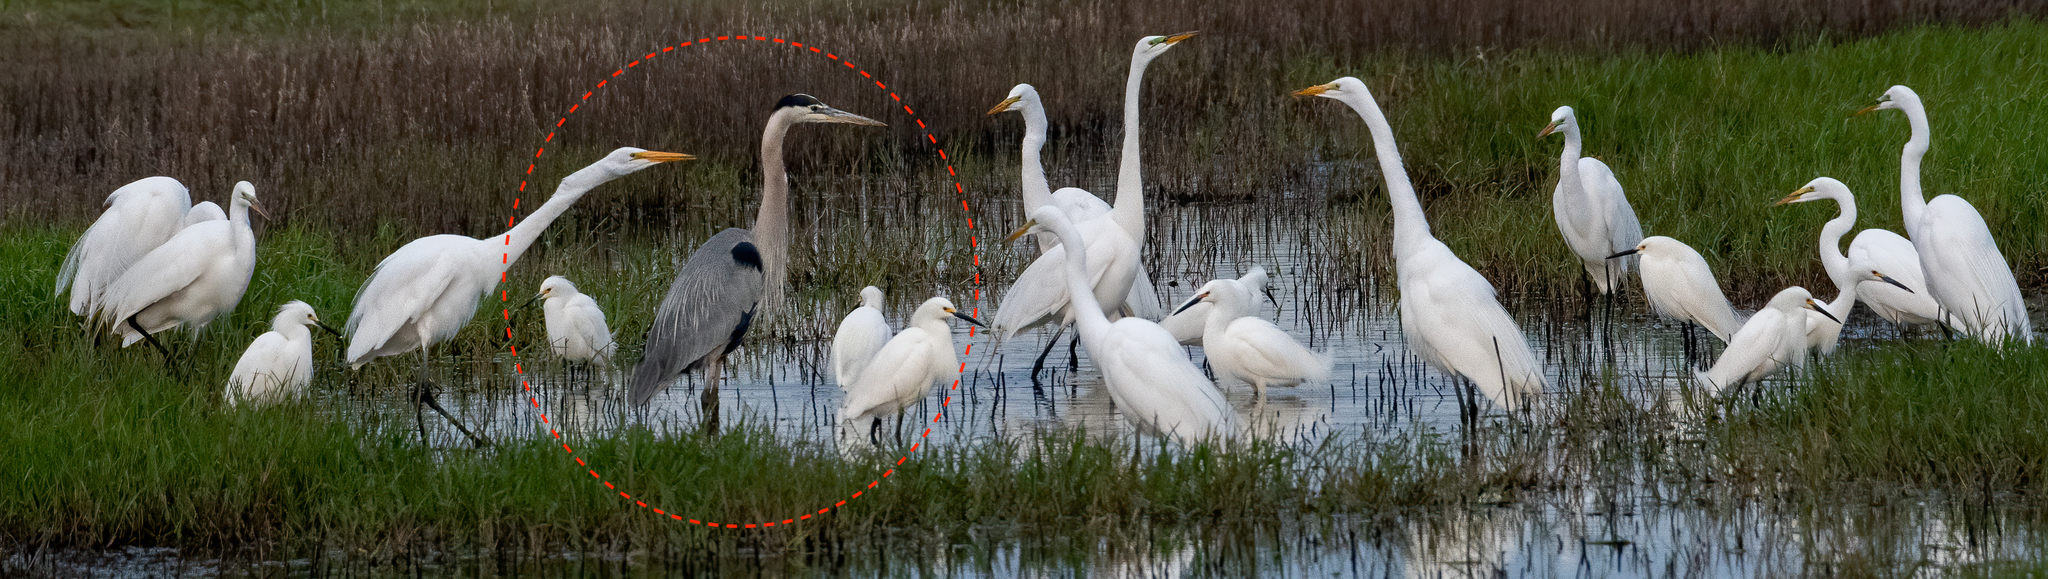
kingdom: Animalia
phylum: Chordata
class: Aves
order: Pelecaniformes
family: Ardeidae
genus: Ardea
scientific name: Ardea herodias
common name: Great blue heron
